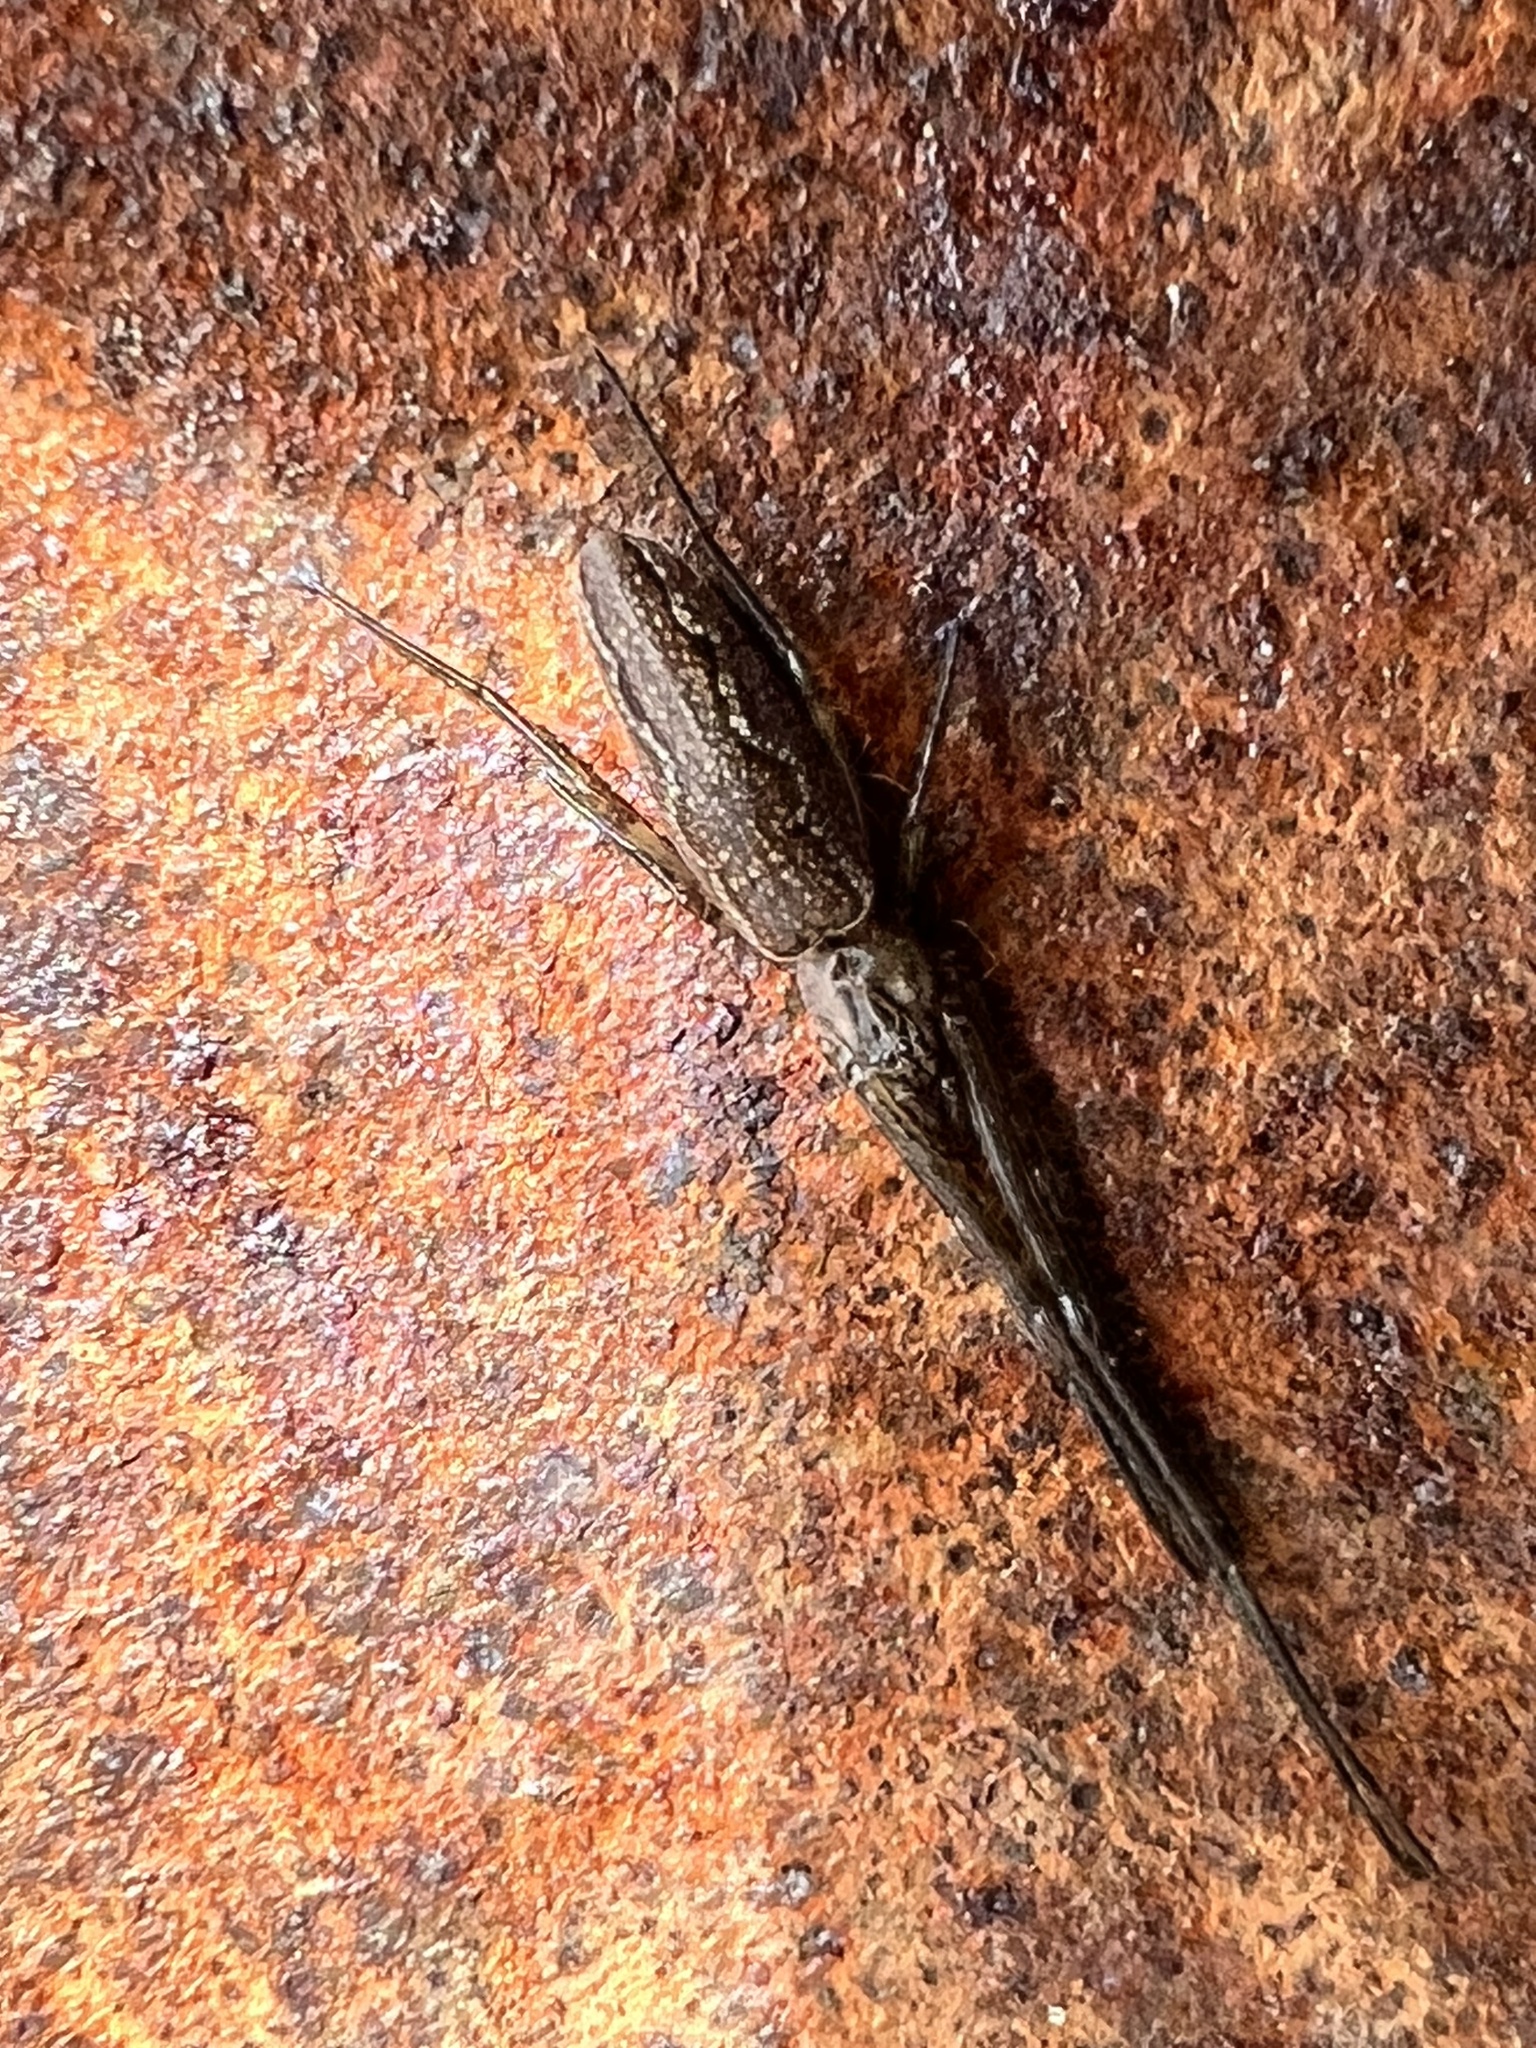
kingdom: Animalia
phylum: Arthropoda
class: Arachnida
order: Araneae
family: Tetragnathidae
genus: Tetragnatha
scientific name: Tetragnatha versicolor
